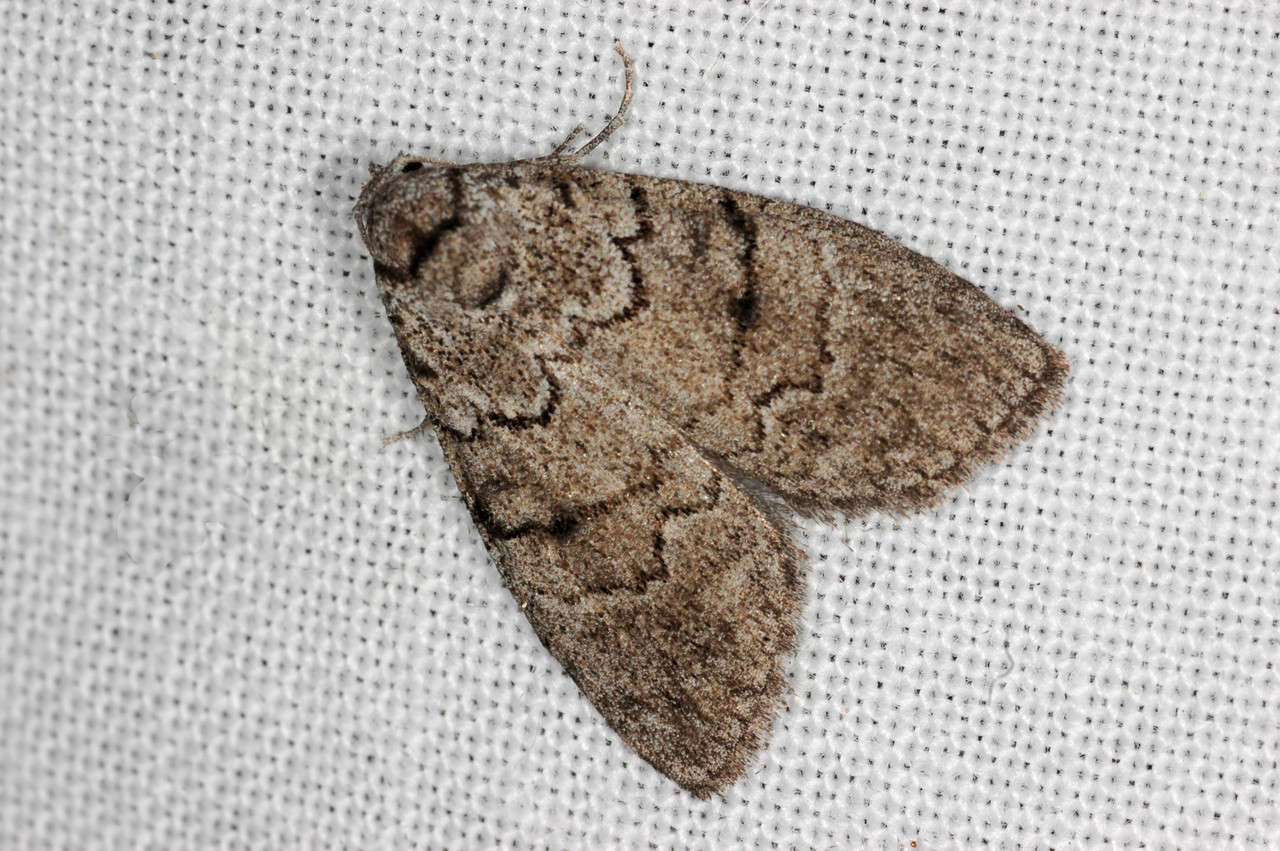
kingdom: Animalia
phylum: Arthropoda
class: Insecta
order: Lepidoptera
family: Nolidae
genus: Uraba
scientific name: Uraba lugens
